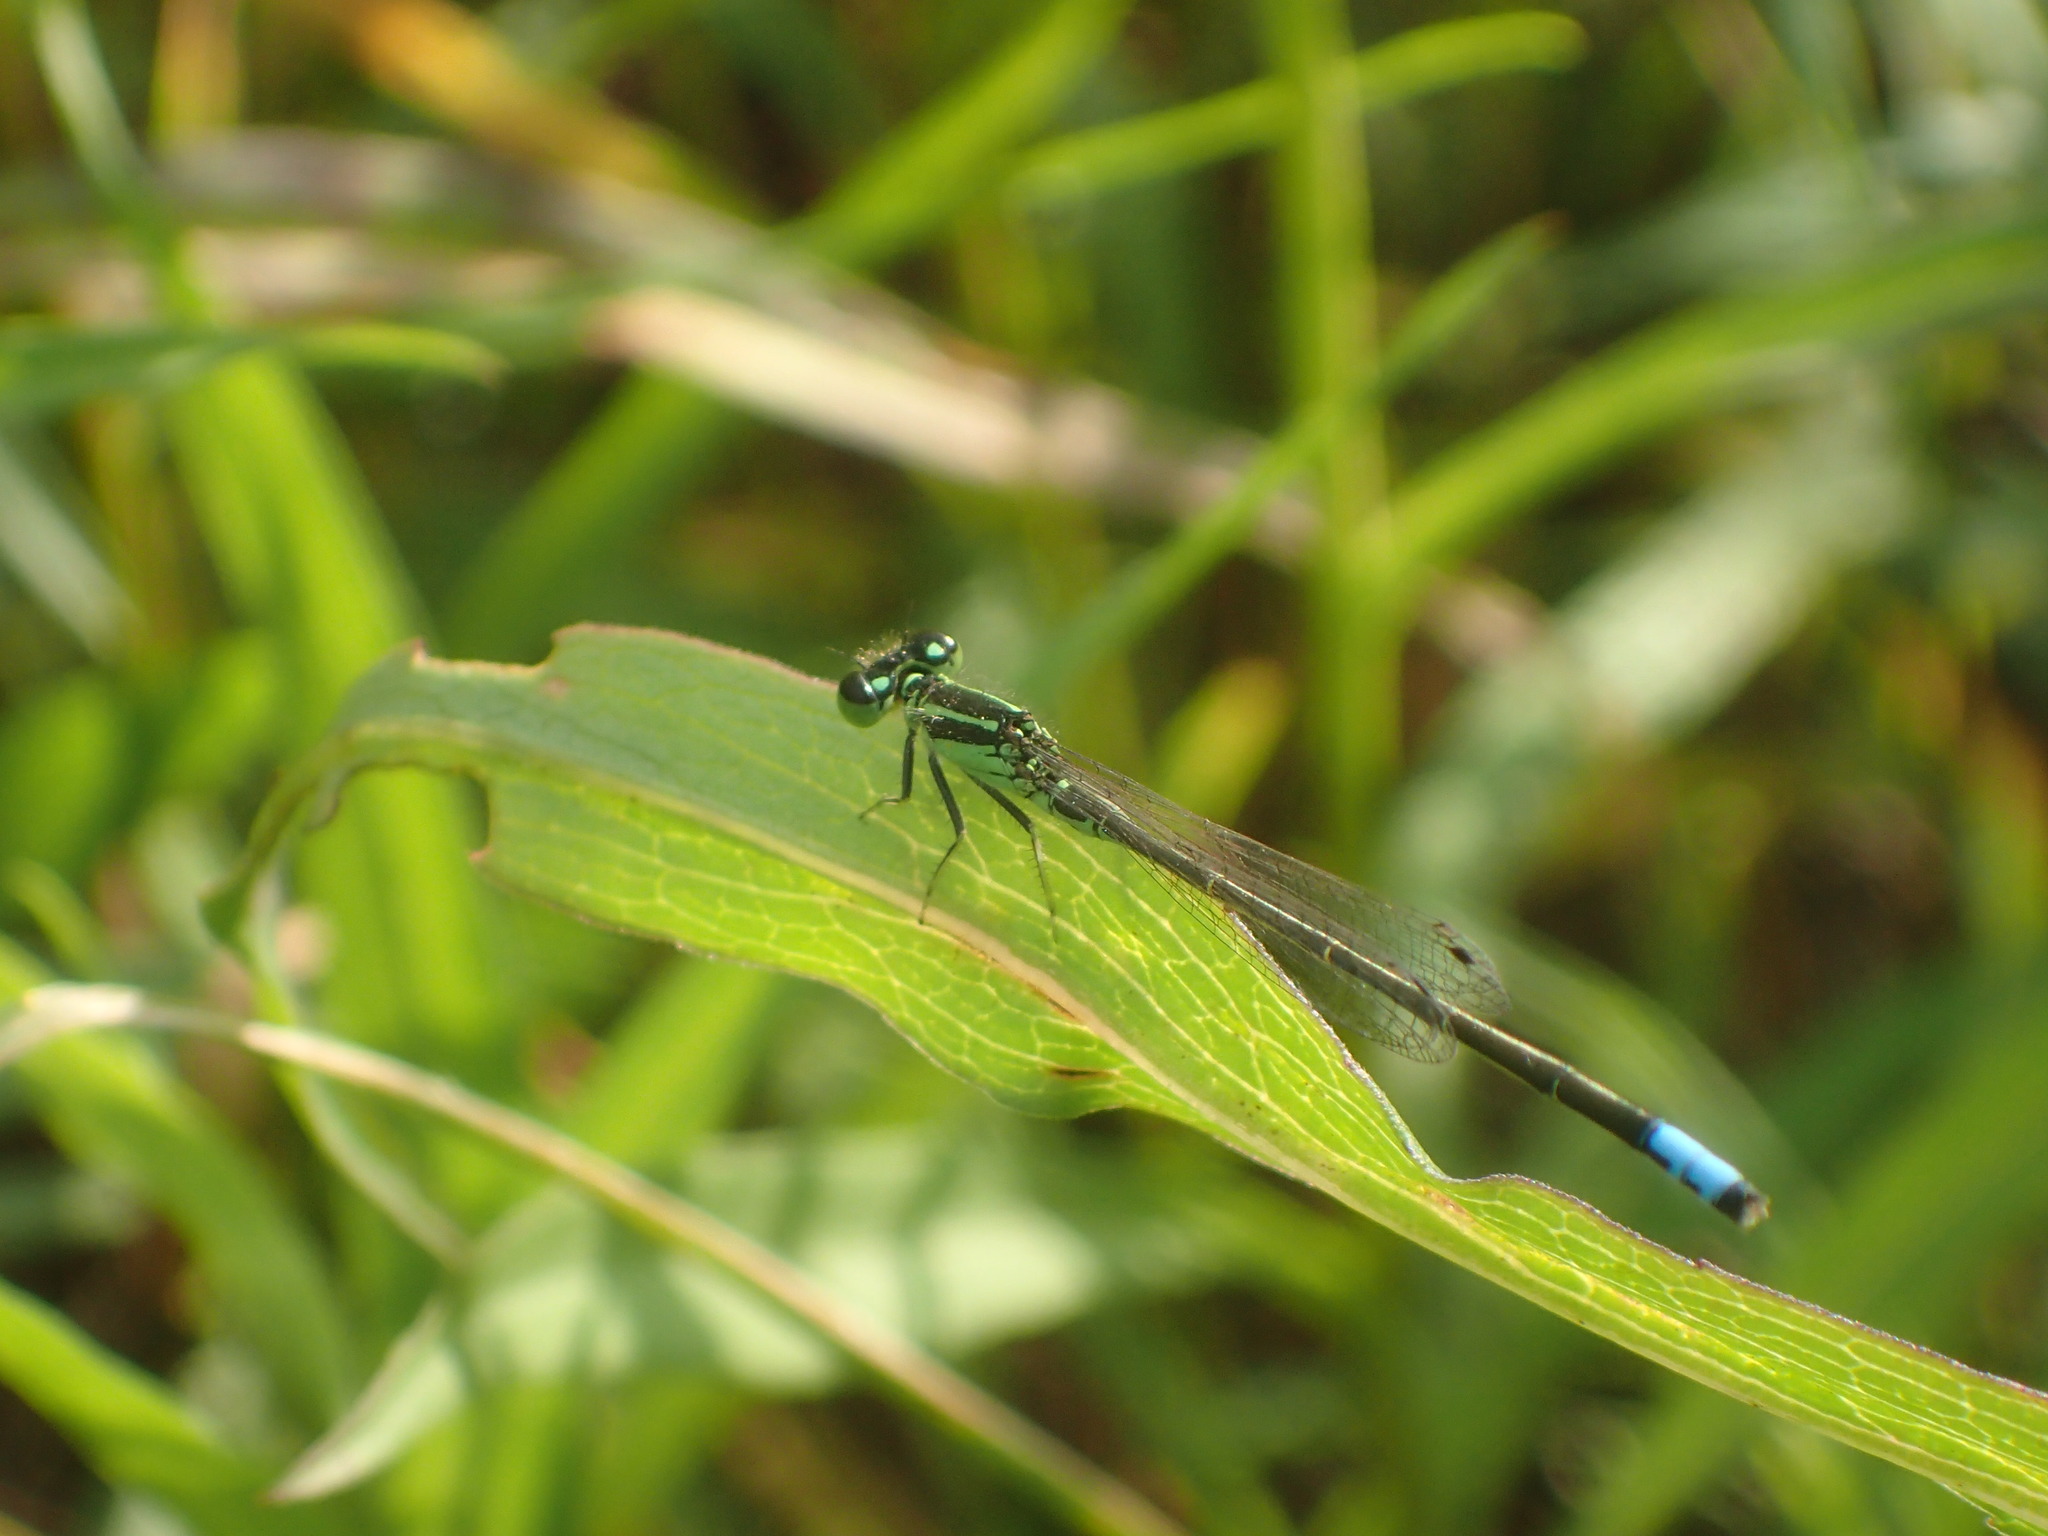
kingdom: Animalia
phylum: Arthropoda
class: Insecta
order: Odonata
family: Coenagrionidae
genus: Ischnura
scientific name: Ischnura verticalis
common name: Eastern forktail
